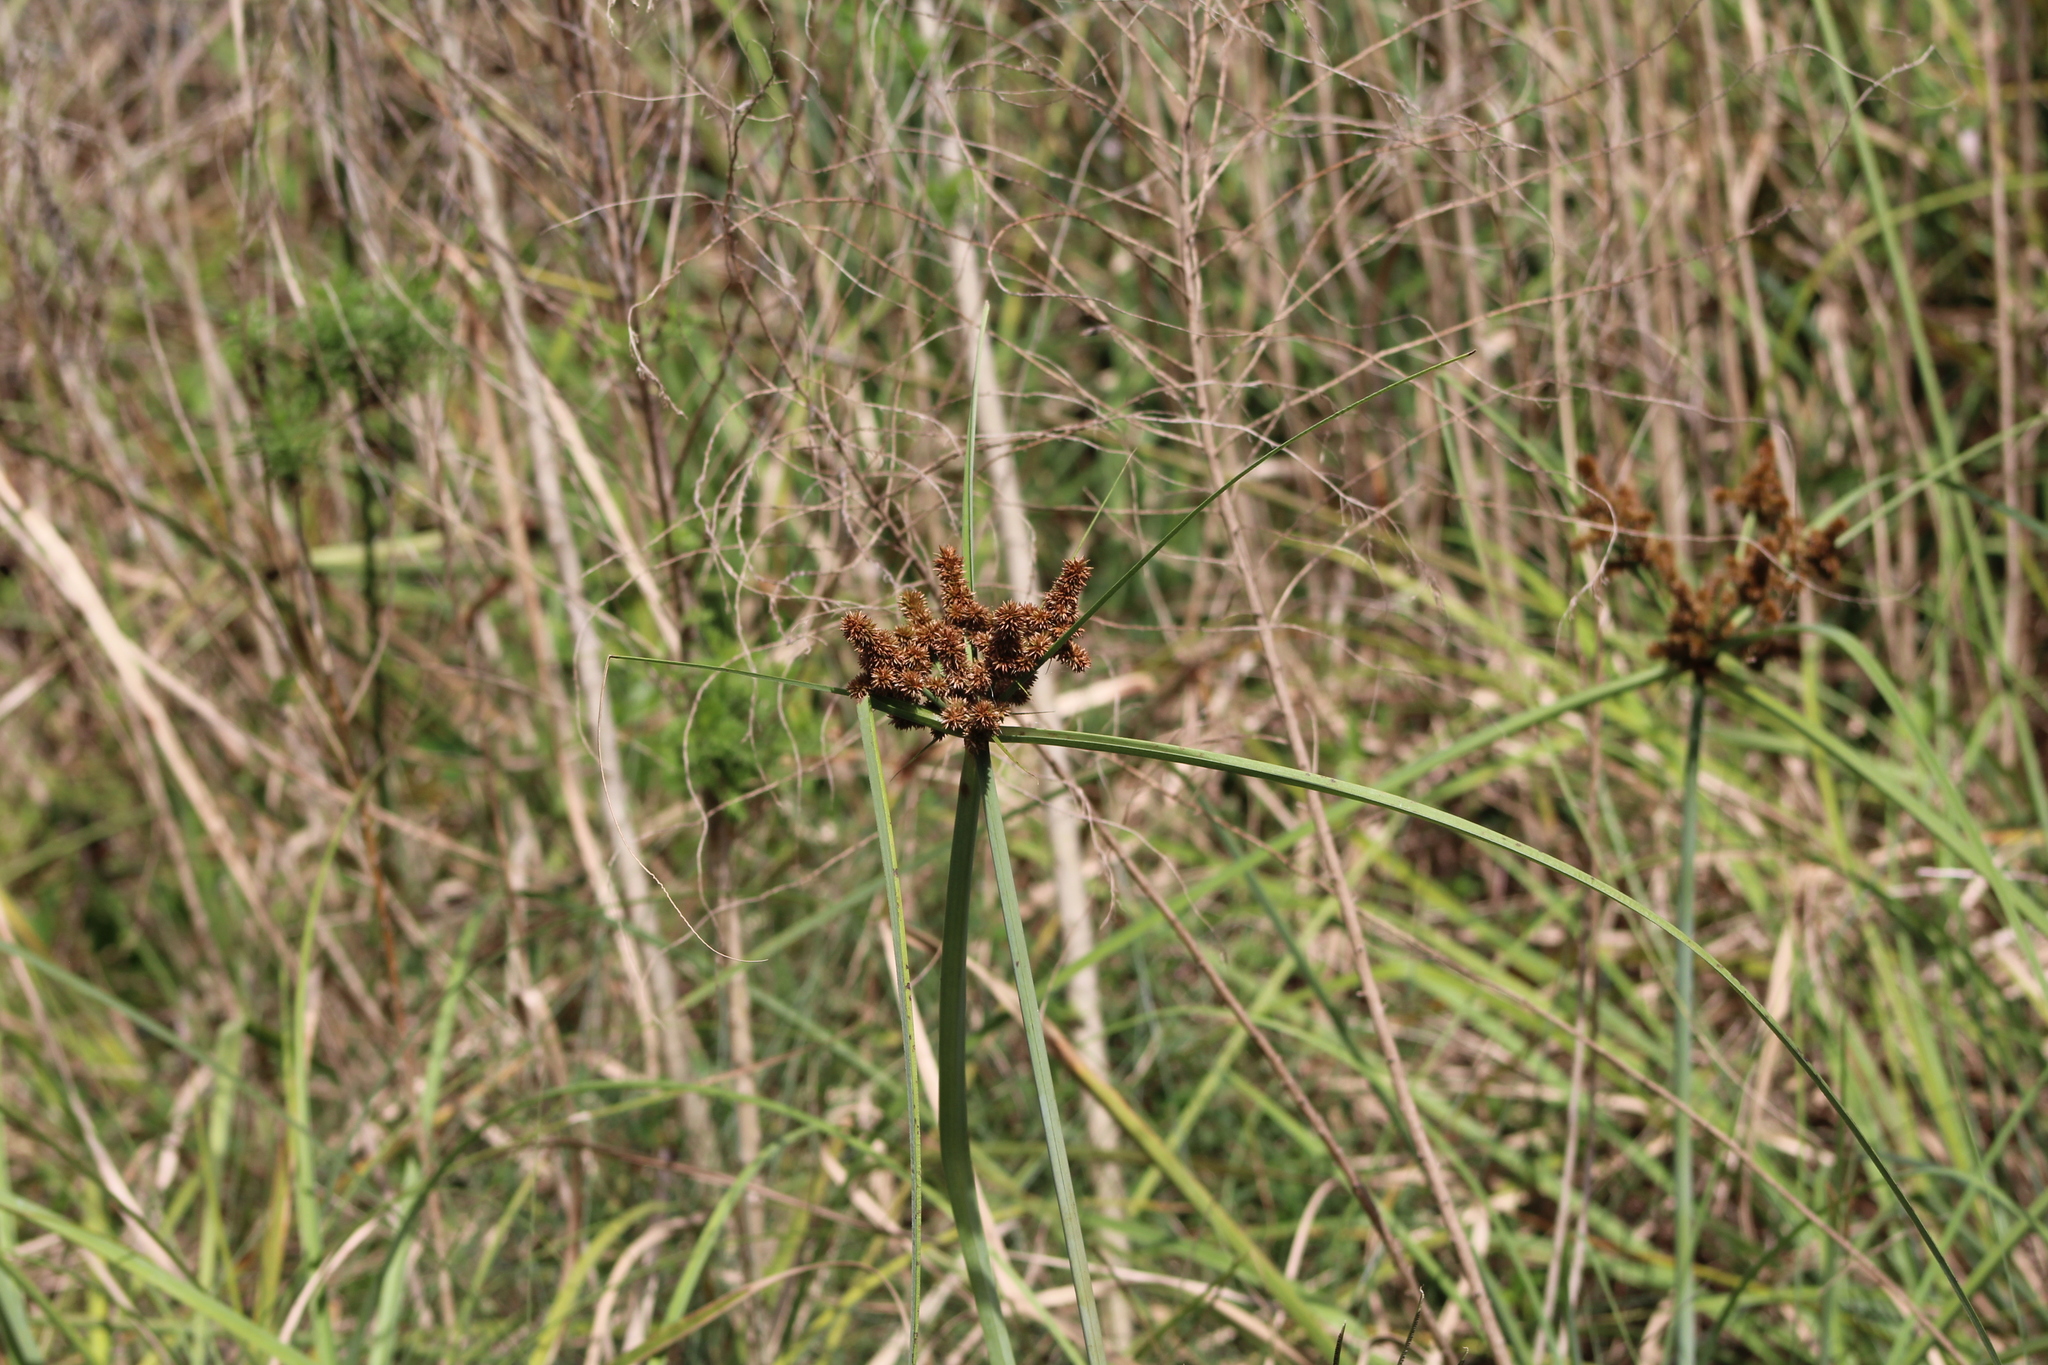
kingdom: Plantae
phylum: Tracheophyta
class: Liliopsida
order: Poales
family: Cyperaceae
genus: Cyperus
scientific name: Cyperus ligularis
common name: Swamp flat sedge
